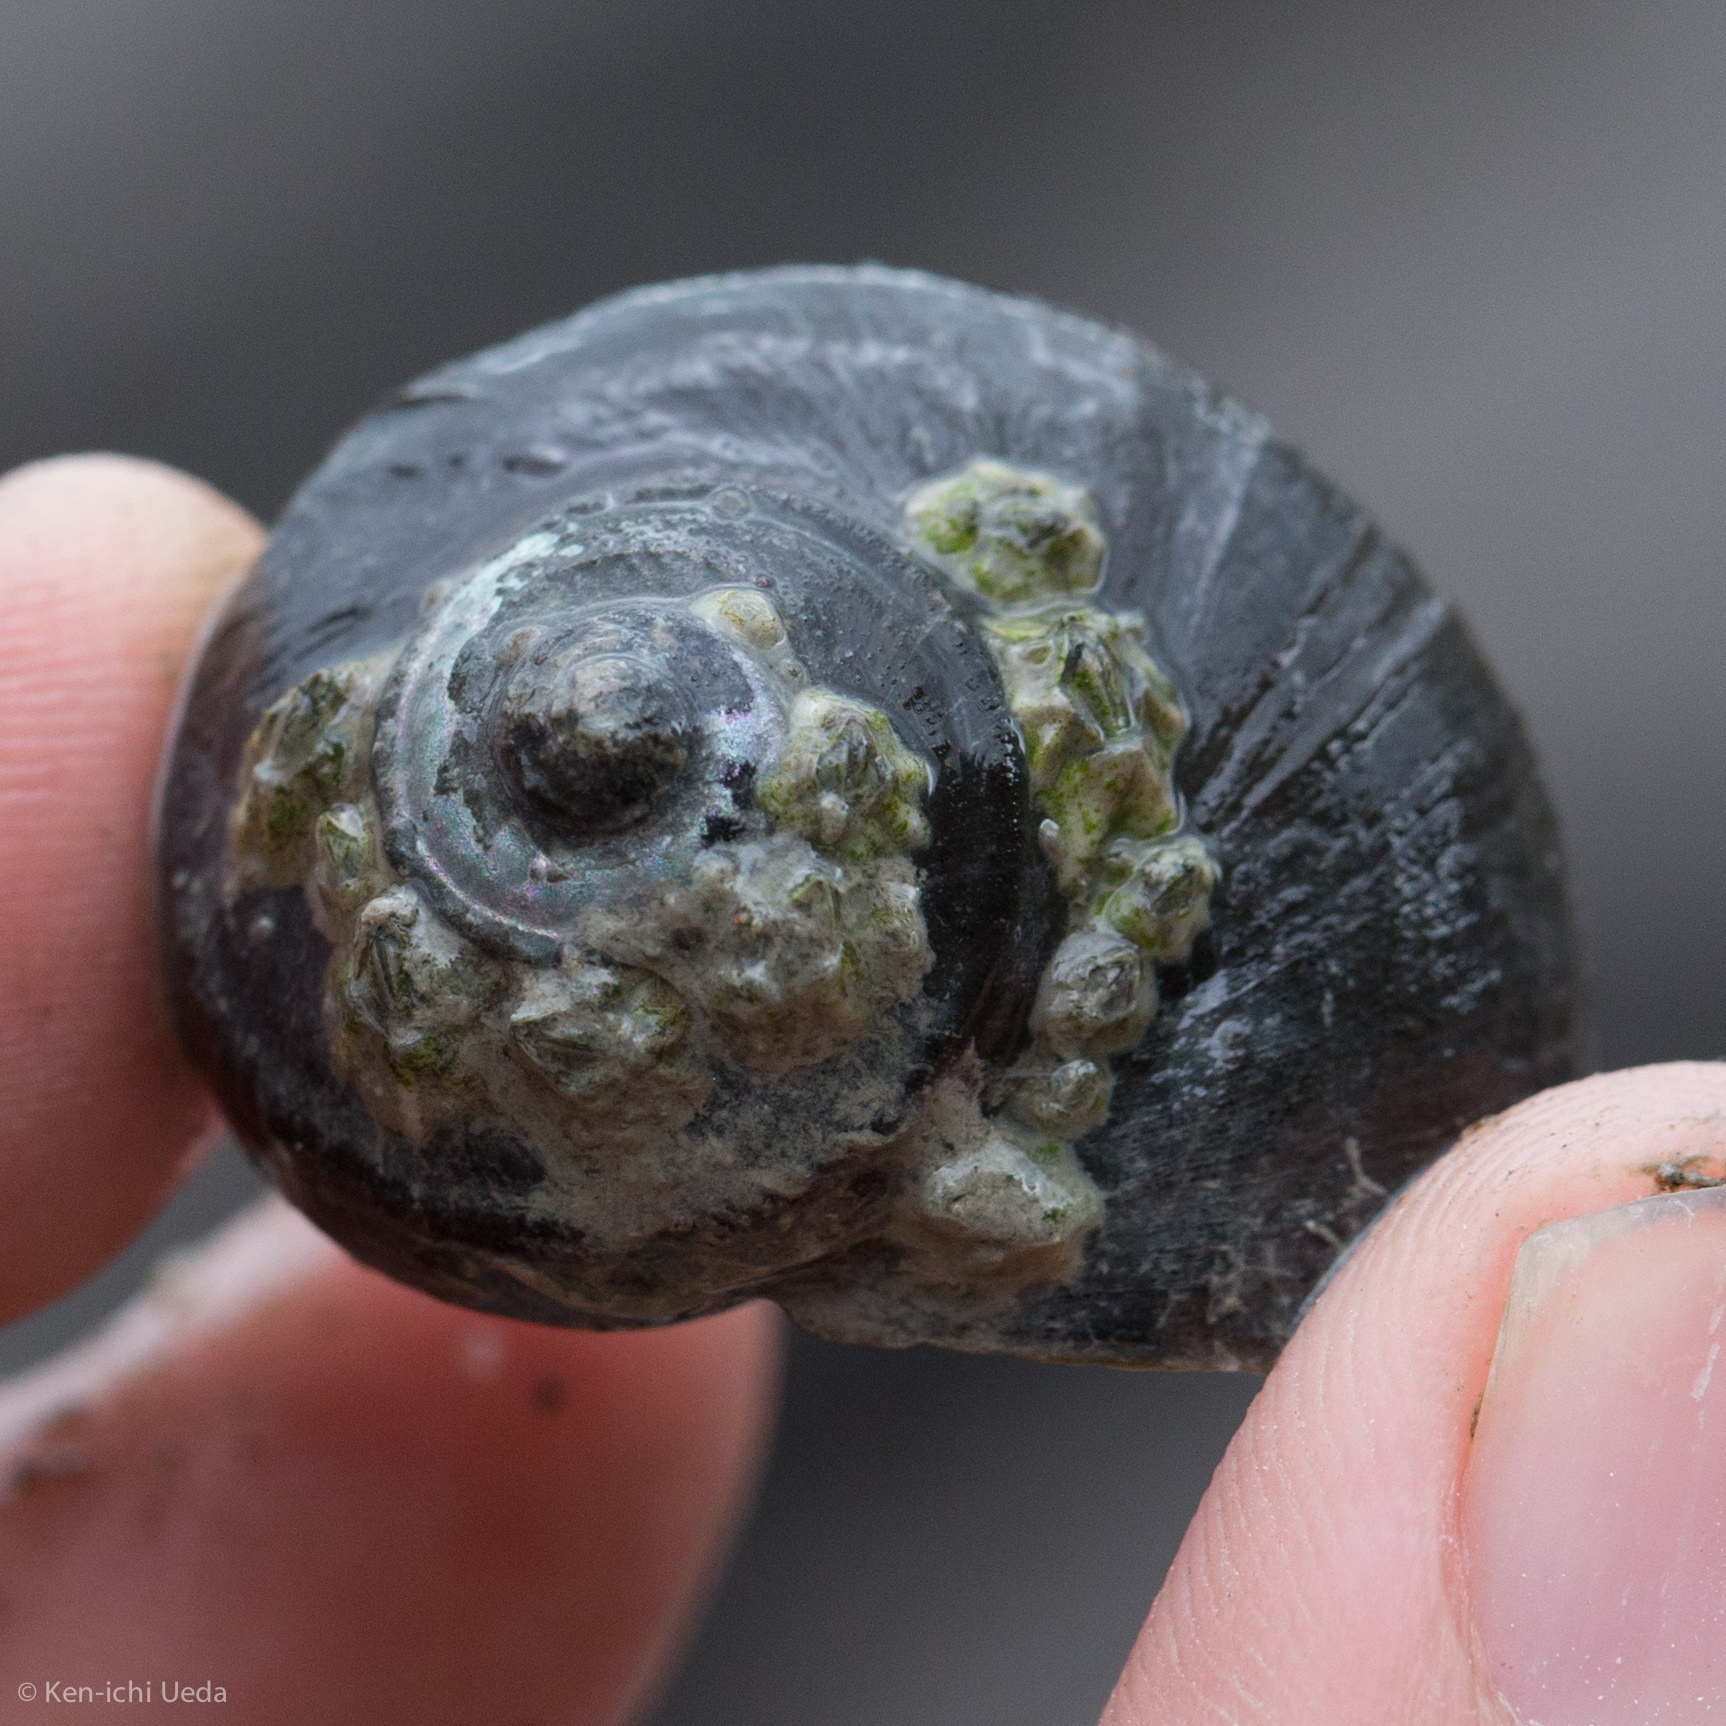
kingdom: Animalia
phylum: Mollusca
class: Gastropoda
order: Trochida
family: Turbinidae
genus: Lunella
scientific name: Lunella smaragda
